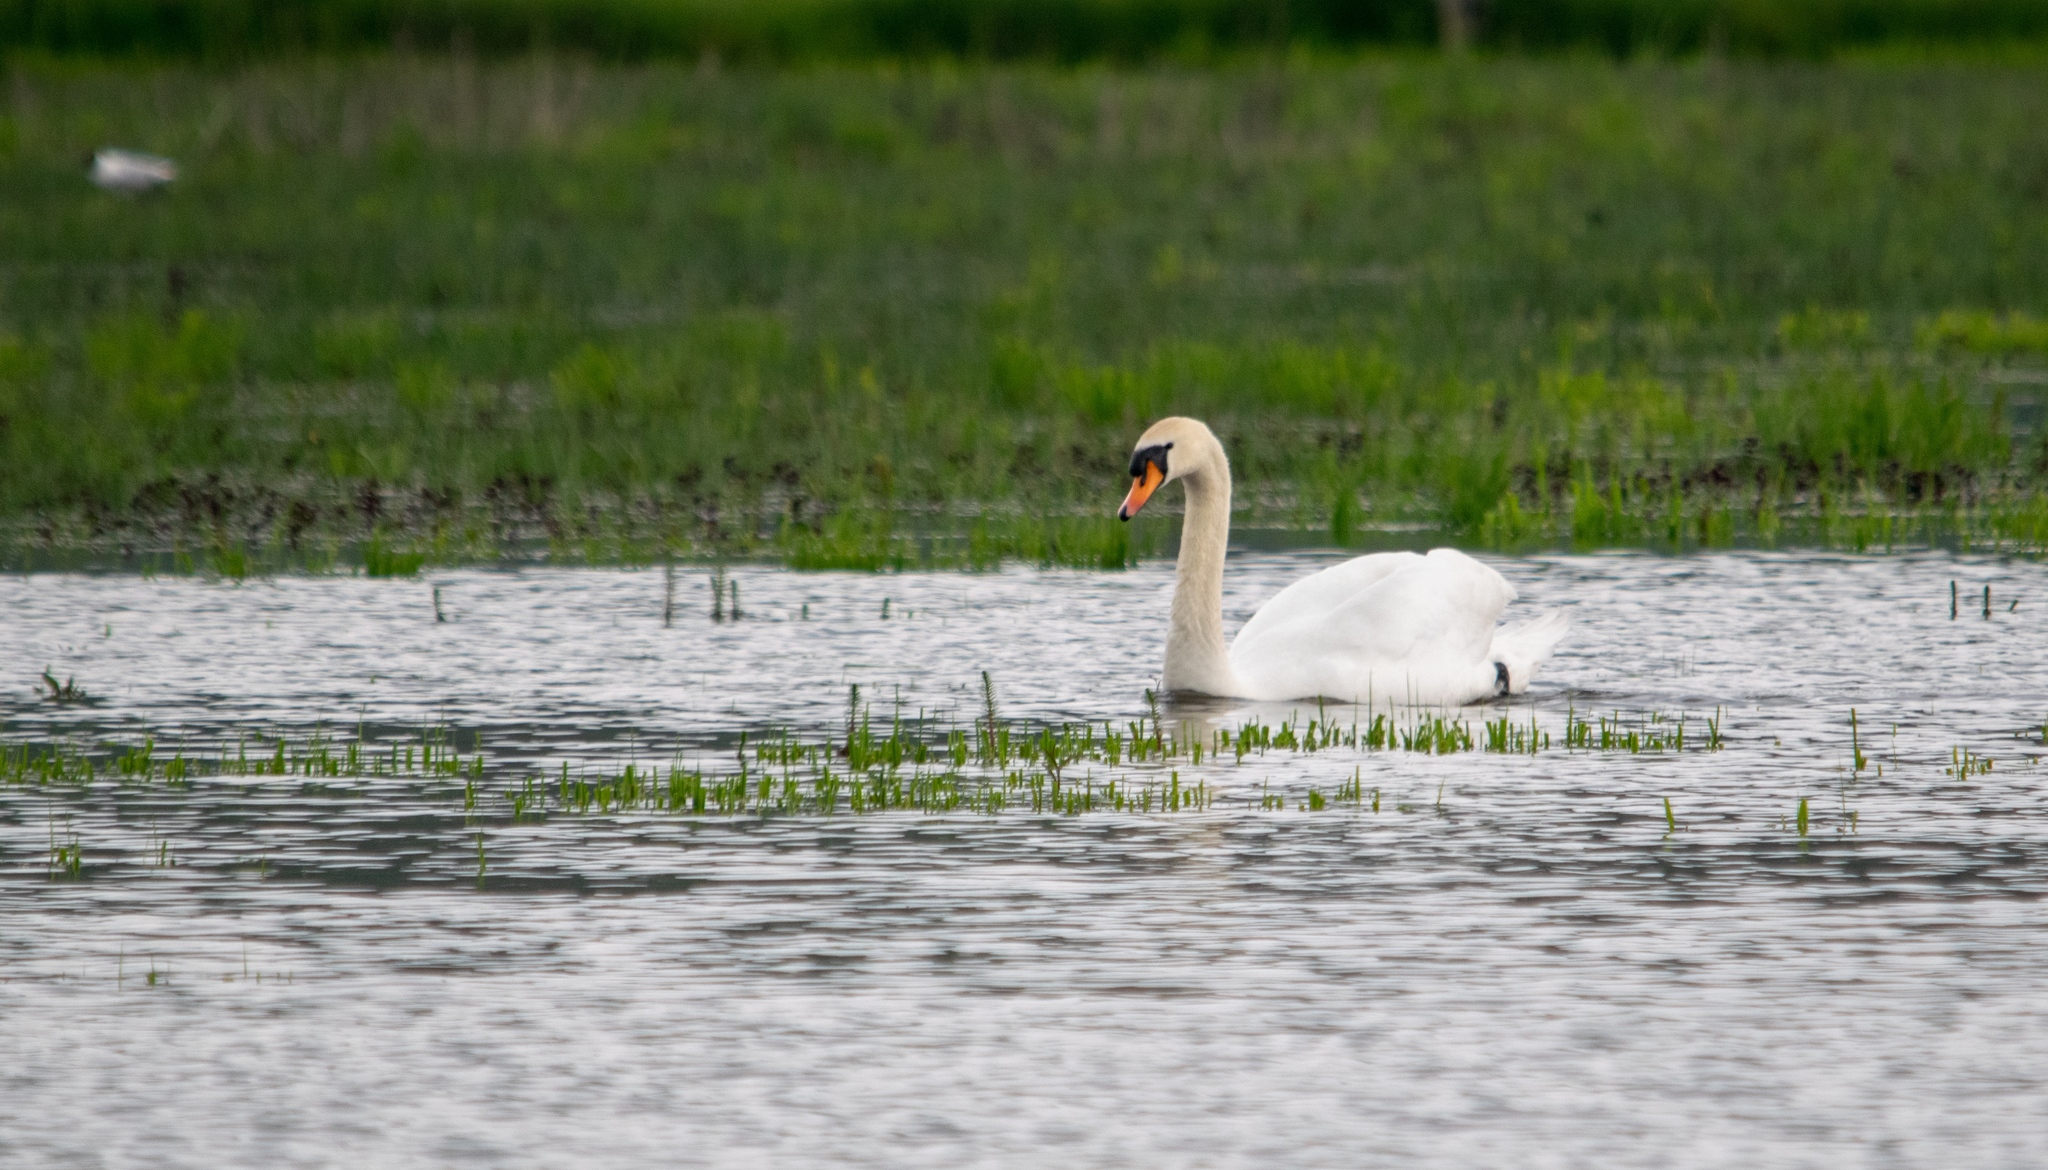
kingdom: Animalia
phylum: Chordata
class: Aves
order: Anseriformes
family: Anatidae
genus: Cygnus
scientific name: Cygnus olor
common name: Mute swan
